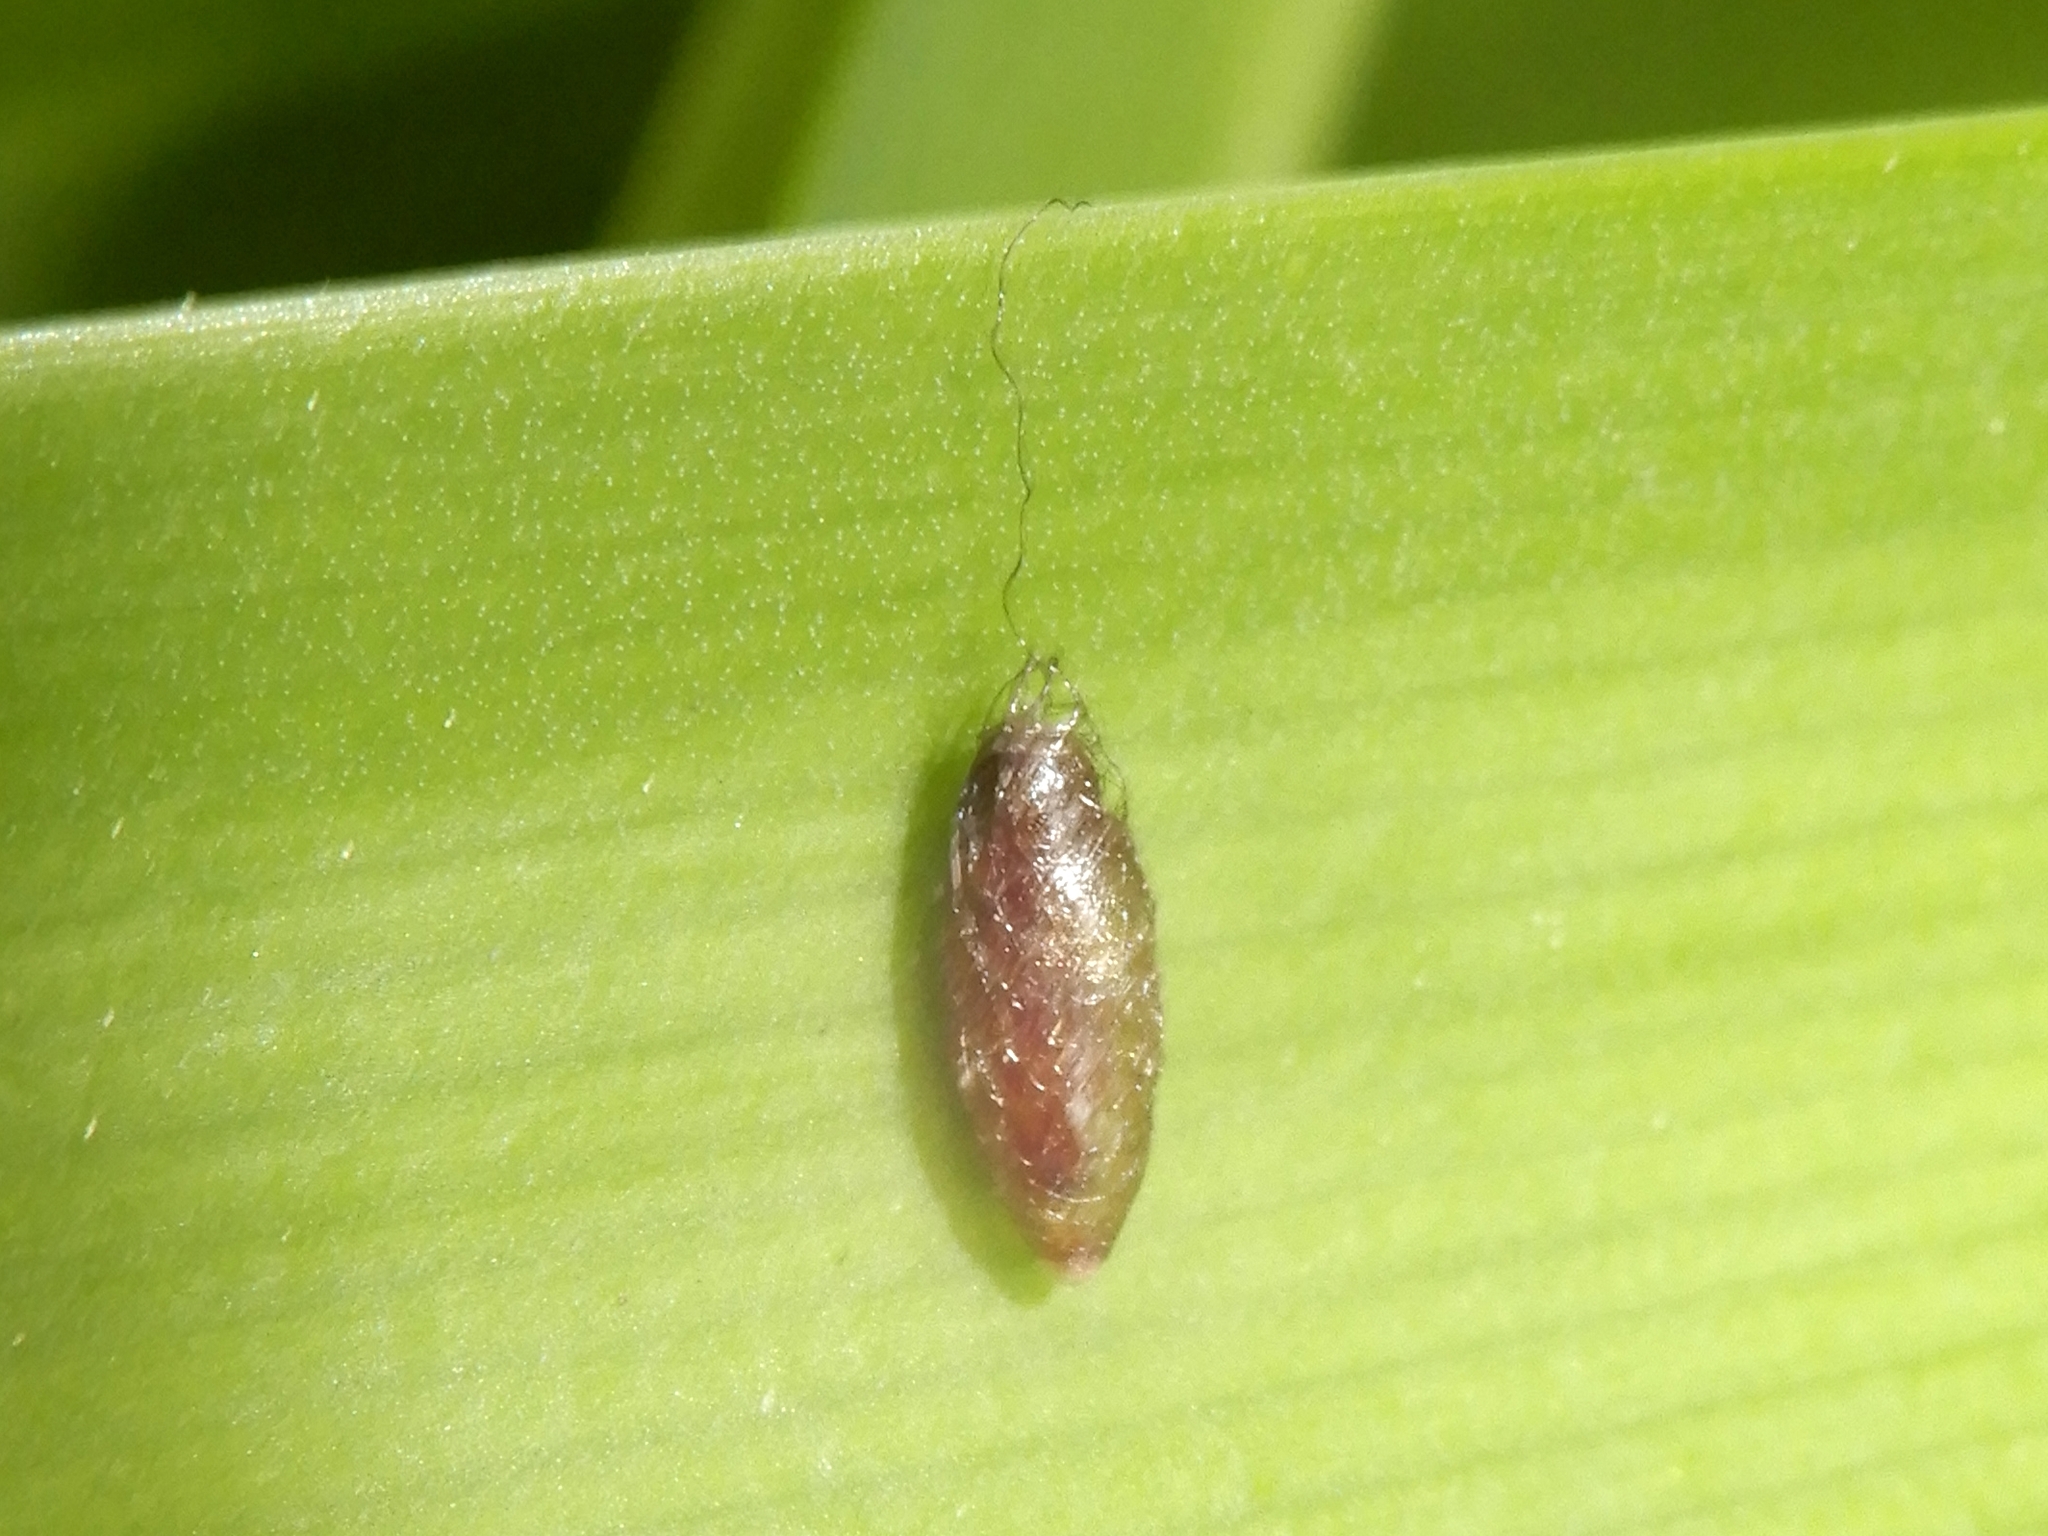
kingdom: Animalia
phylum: Arthropoda
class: Insecta
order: Hymenoptera
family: Braconidae
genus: Meteorus
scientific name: Meteorus pulchricornis
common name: Braconid wasp
